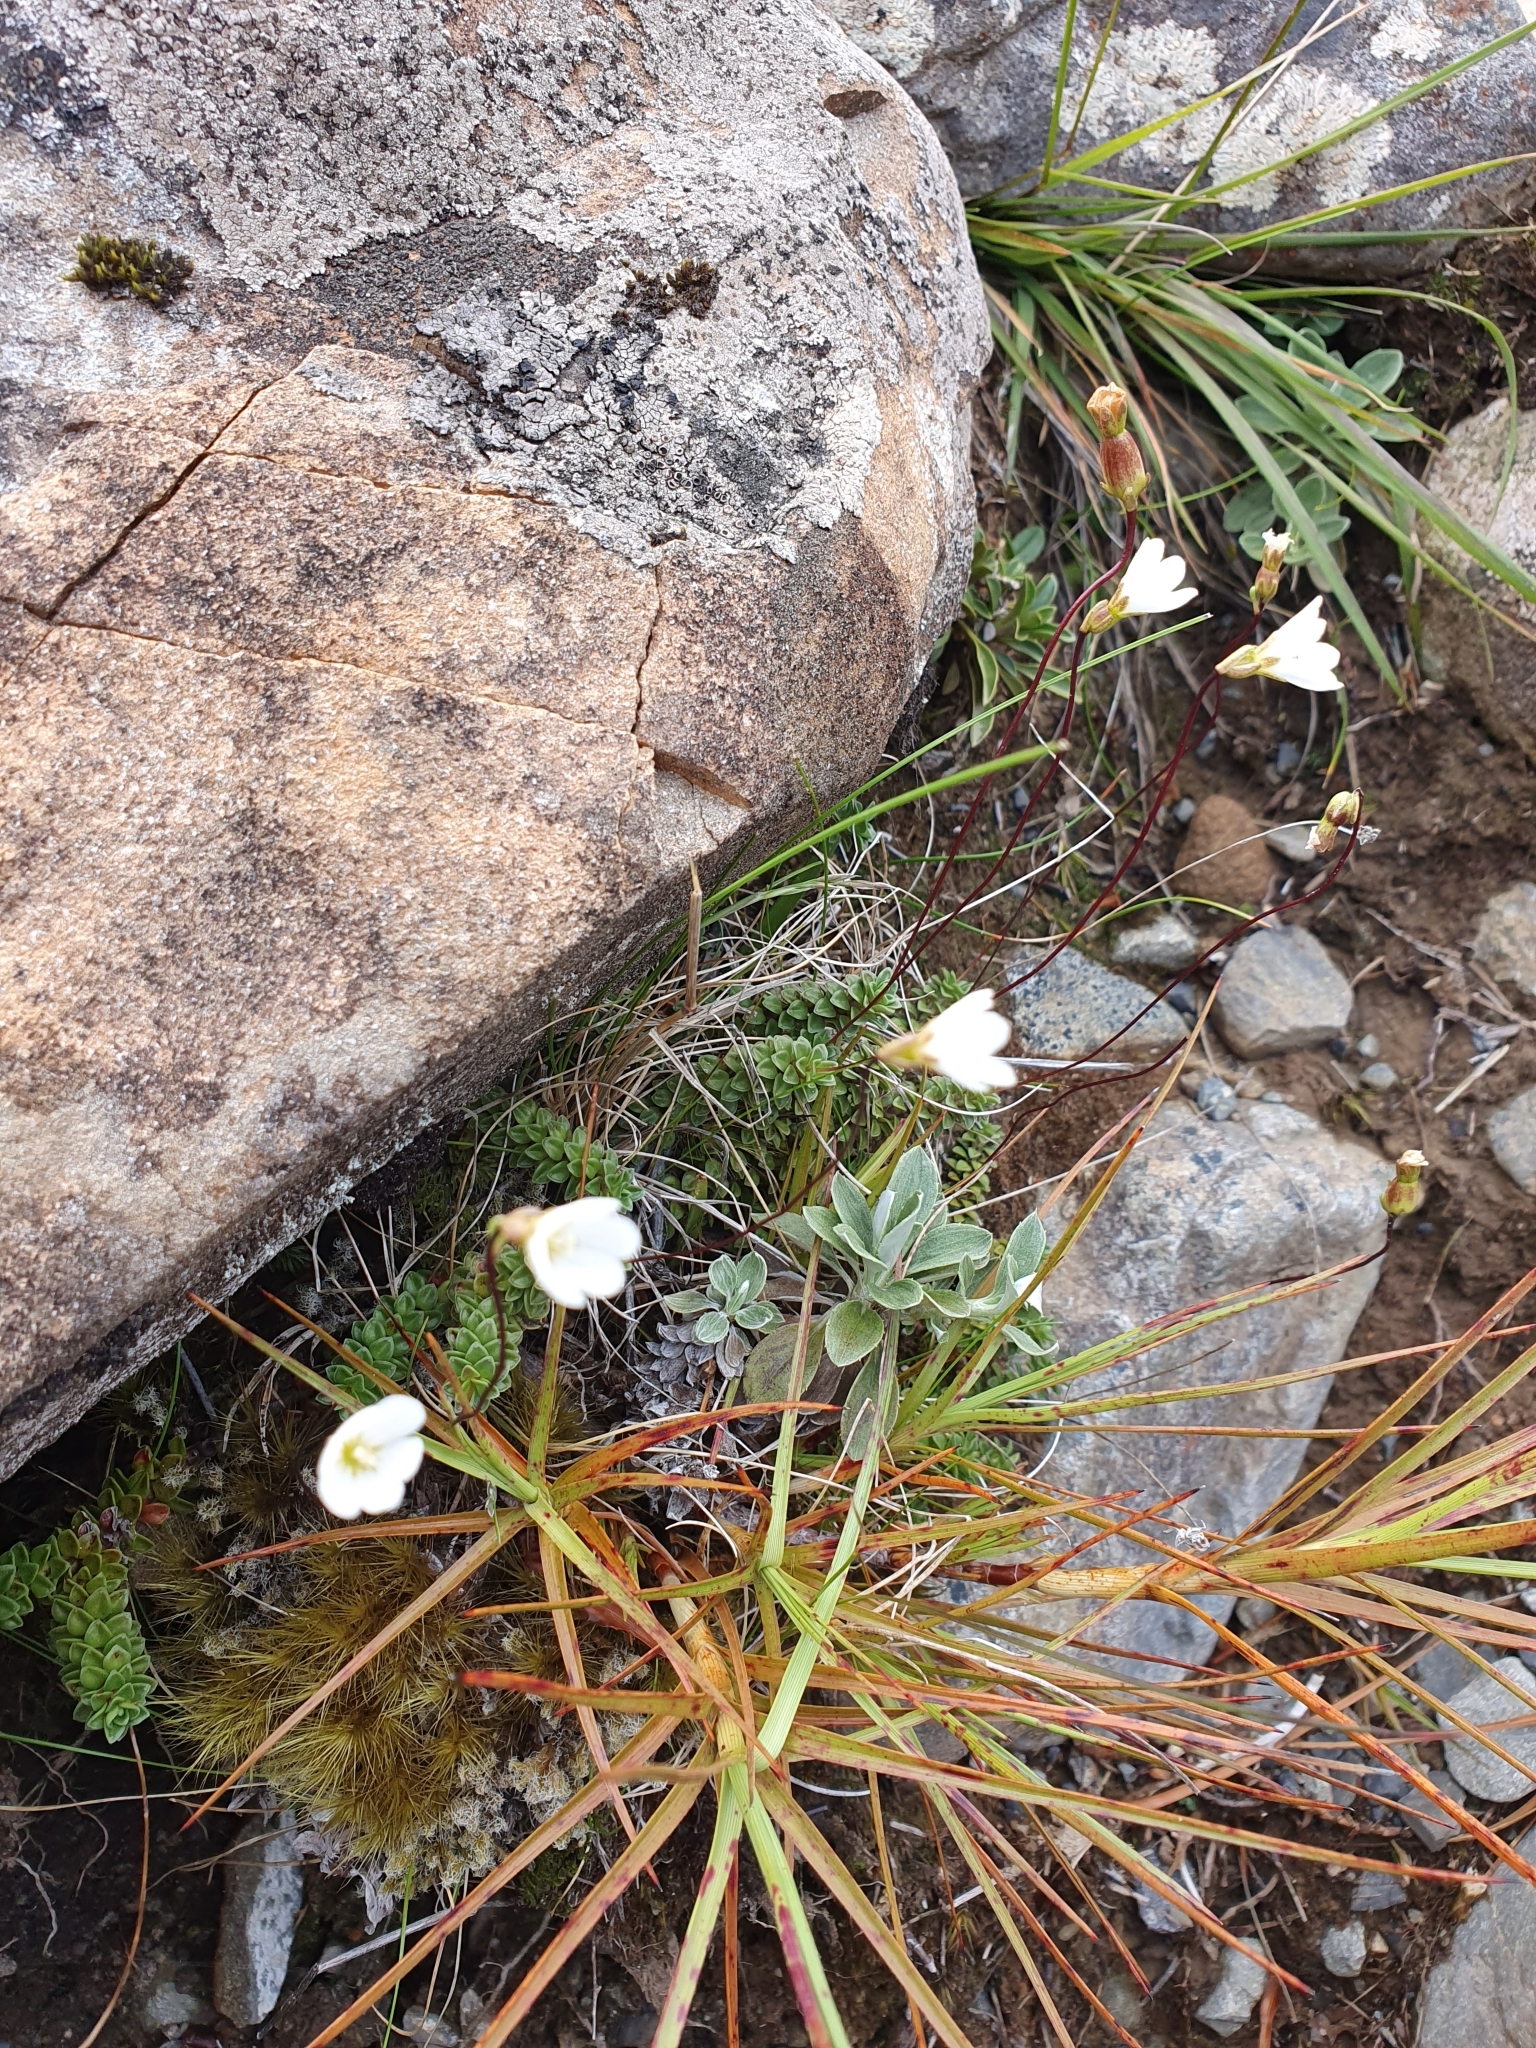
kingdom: Plantae
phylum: Tracheophyta
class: Magnoliopsida
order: Asterales
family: Stylidiaceae
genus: Forstera
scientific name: Forstera purpurata
